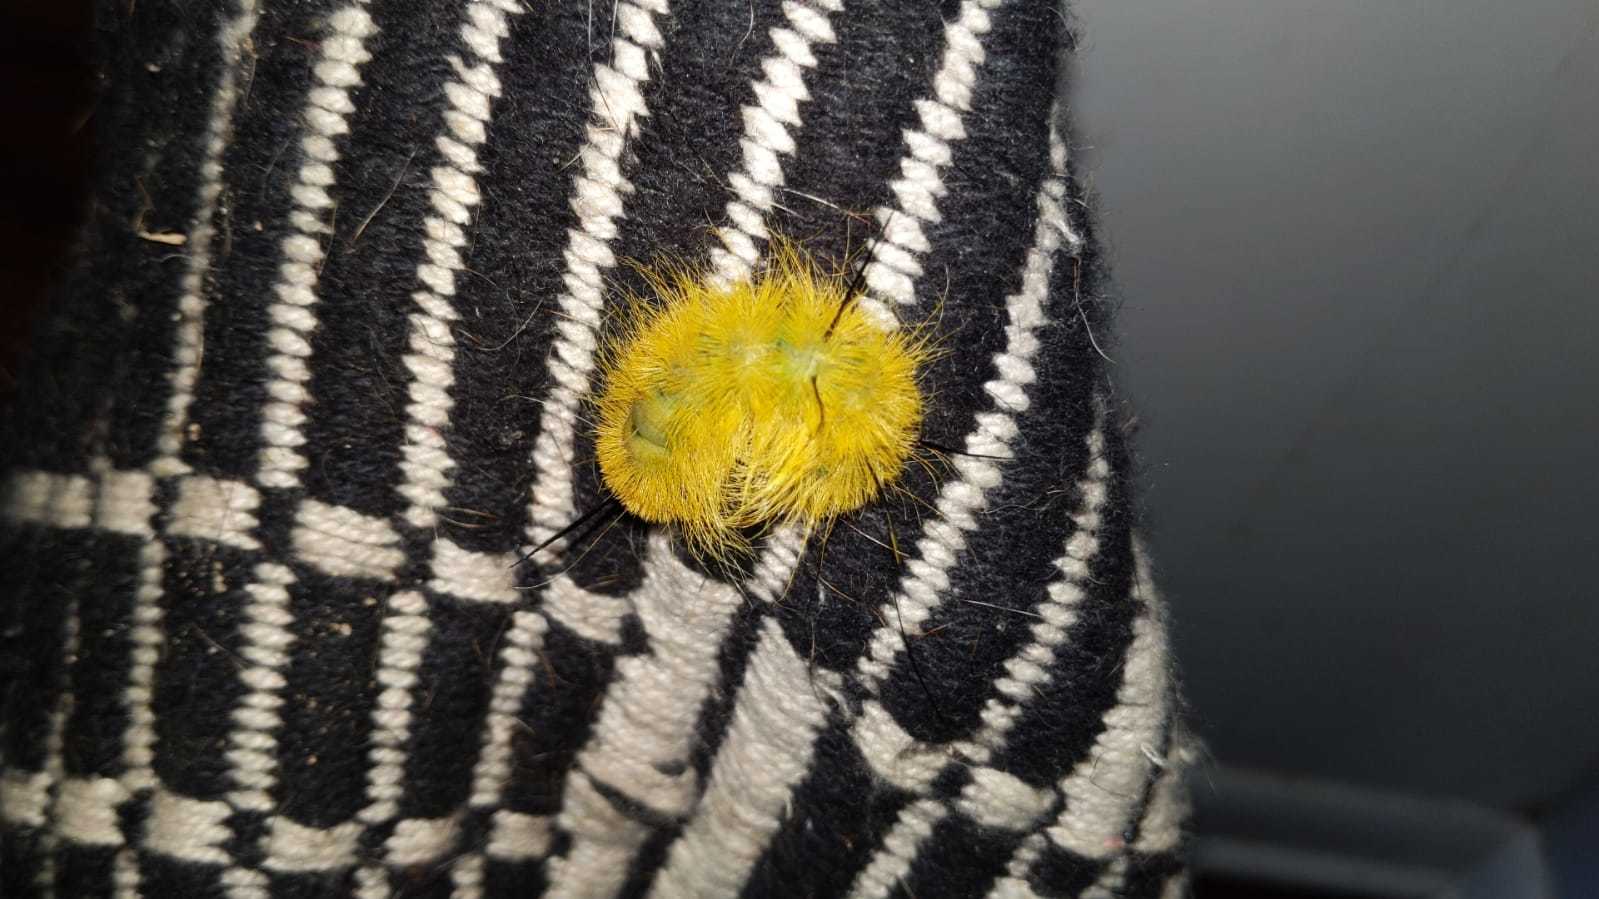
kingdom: Animalia
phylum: Arthropoda
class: Insecta
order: Lepidoptera
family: Noctuidae
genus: Acronicta
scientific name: Acronicta americana
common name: American dagger
